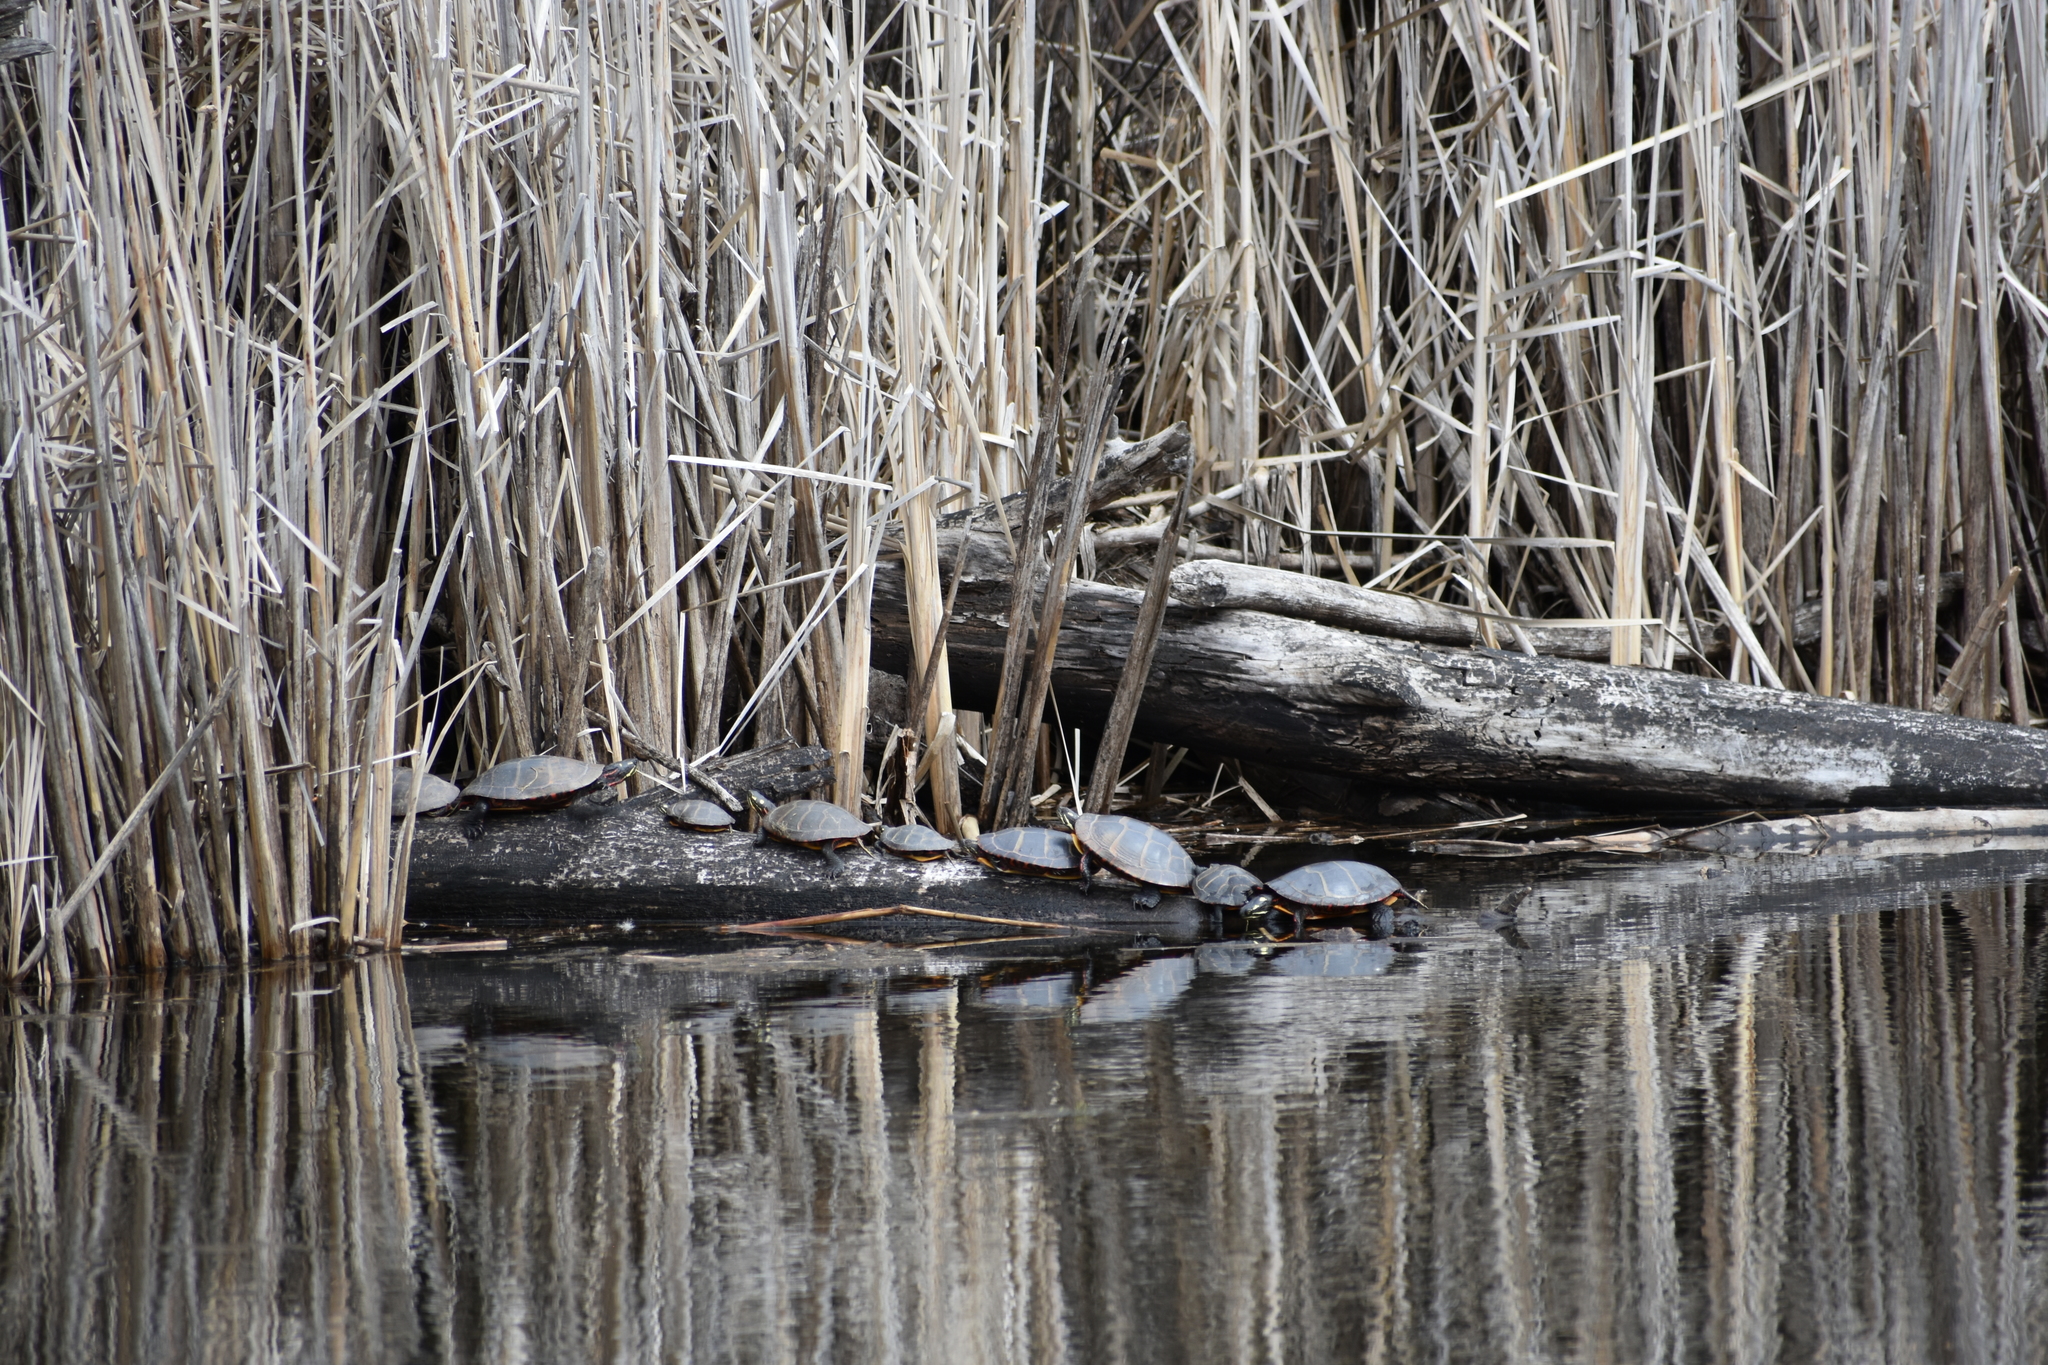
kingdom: Animalia
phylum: Chordata
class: Testudines
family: Emydidae
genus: Chrysemys
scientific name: Chrysemys picta
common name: Painted turtle
